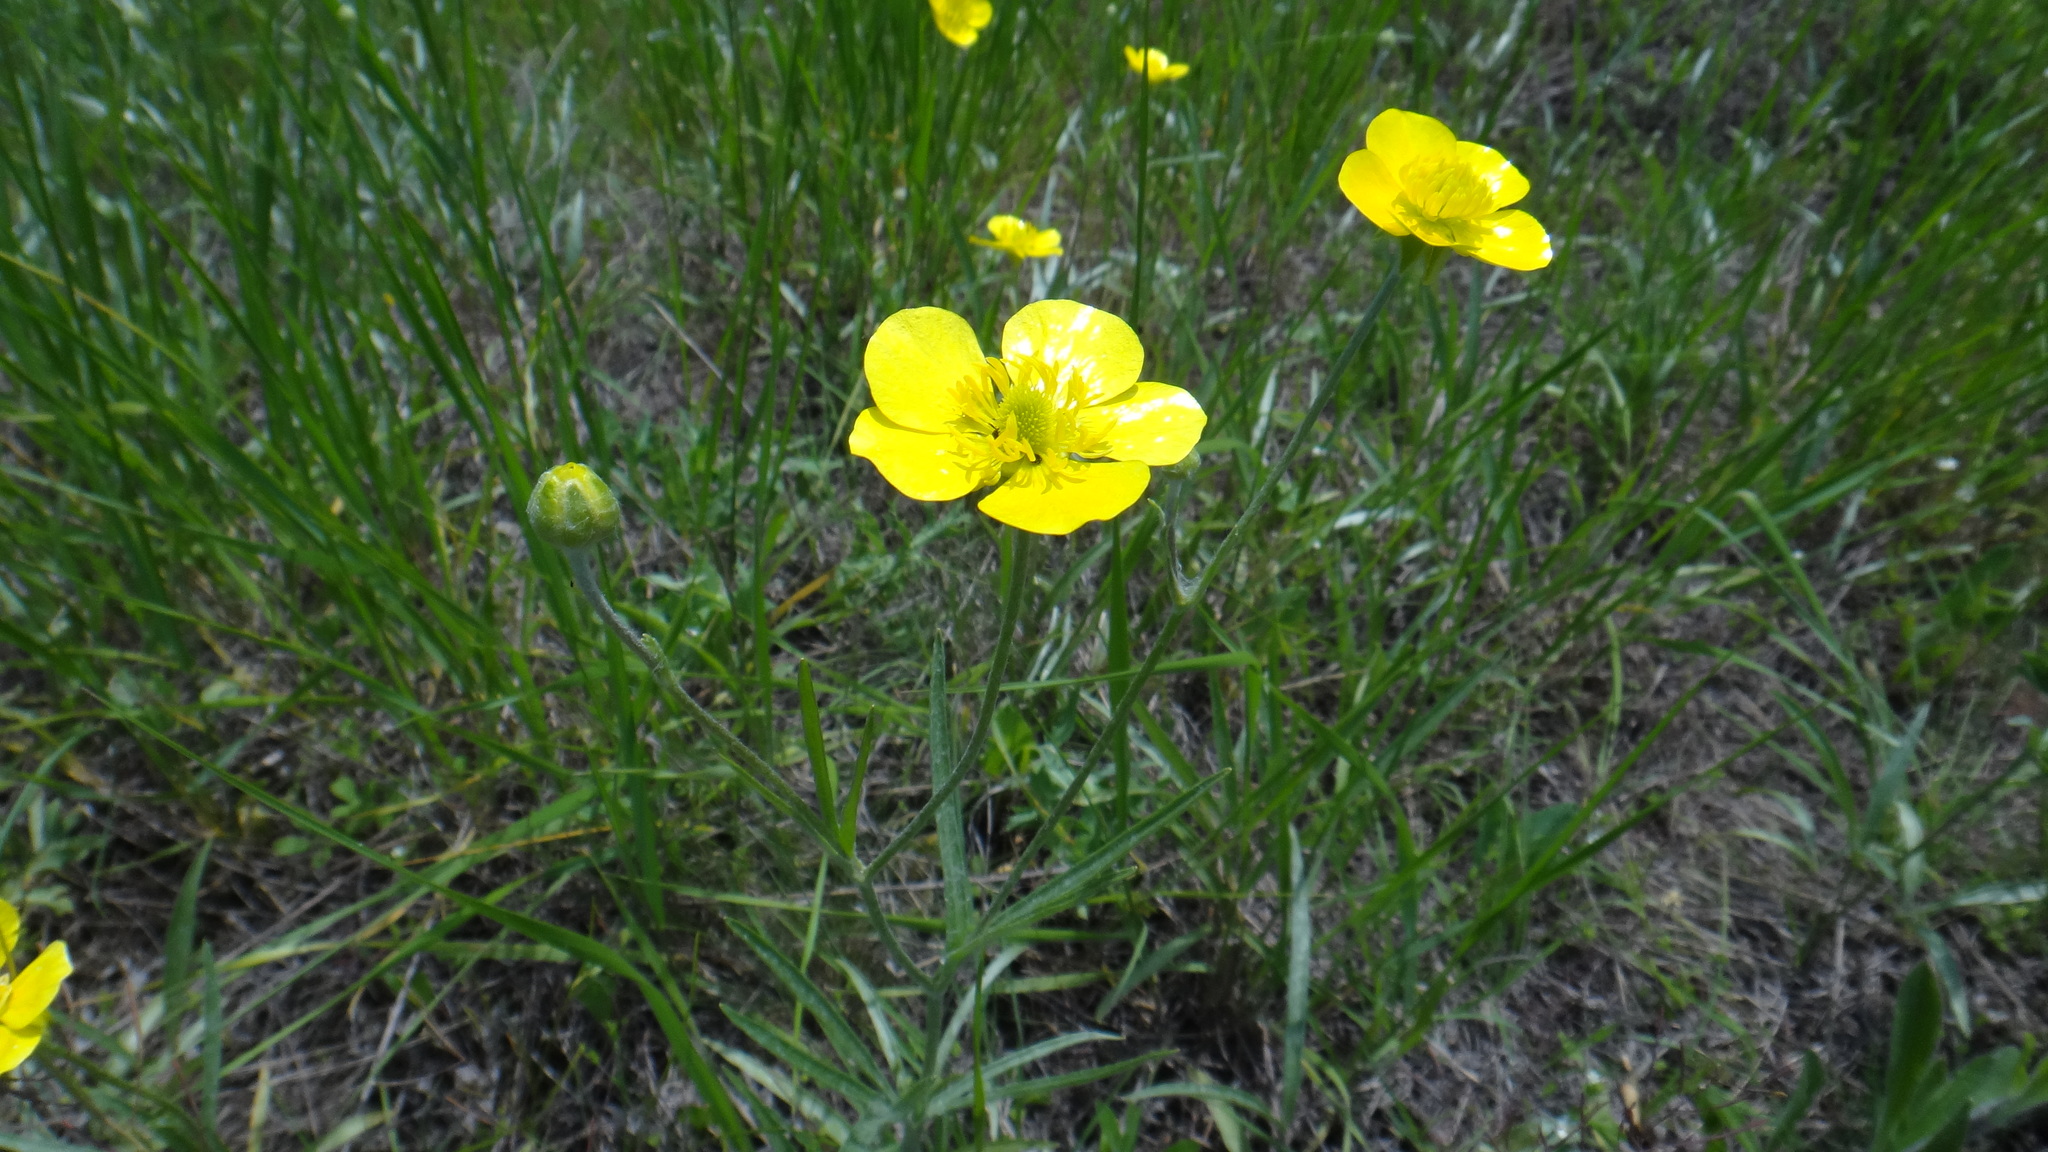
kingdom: Plantae
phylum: Tracheophyta
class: Magnoliopsida
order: Ranunculales
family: Ranunculaceae
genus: Ranunculus
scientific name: Ranunculus illyricus
